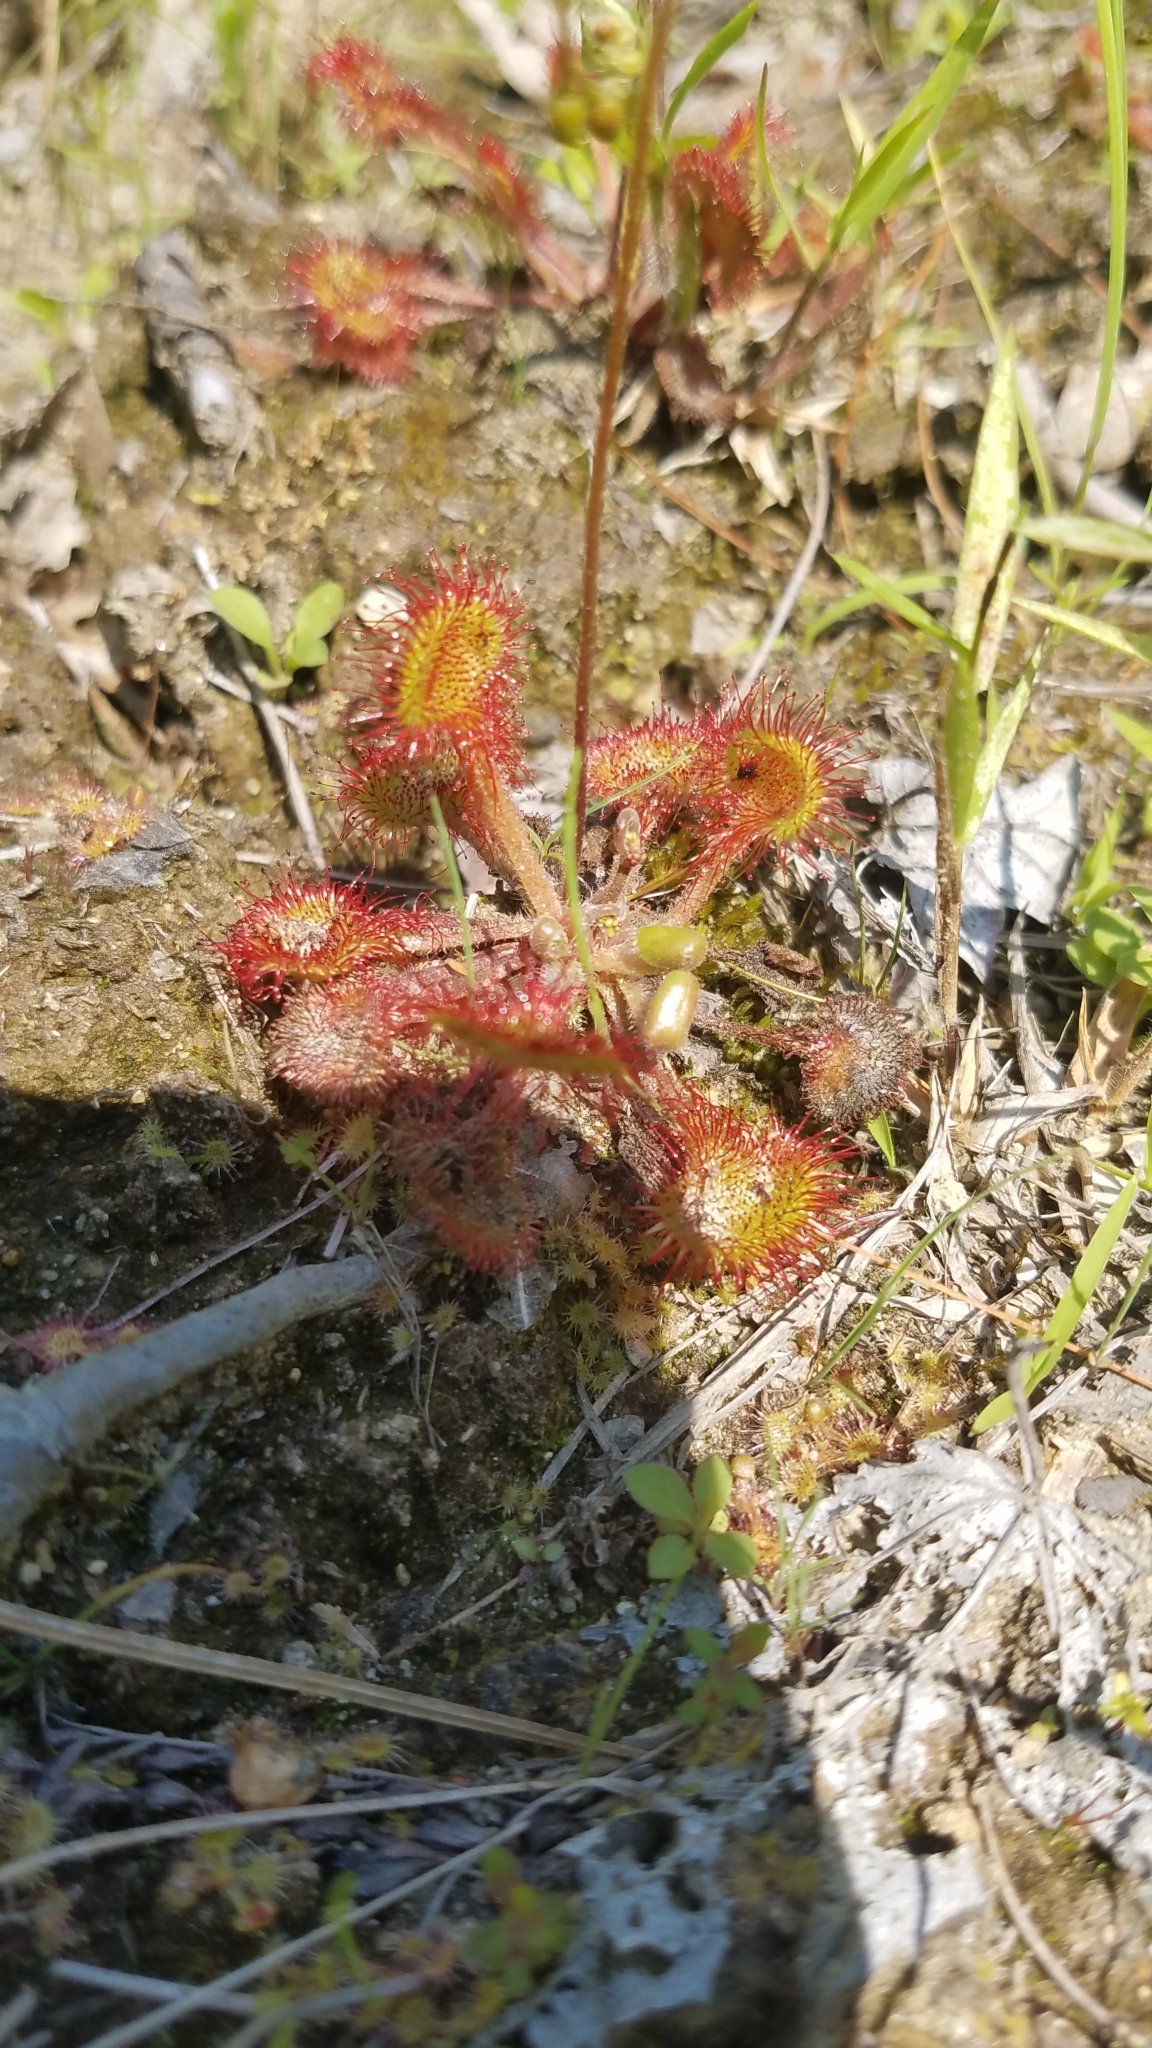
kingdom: Plantae
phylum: Tracheophyta
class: Magnoliopsida
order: Caryophyllales
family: Droseraceae
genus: Drosera
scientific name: Drosera rotundifolia
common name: Round-leaved sundew
